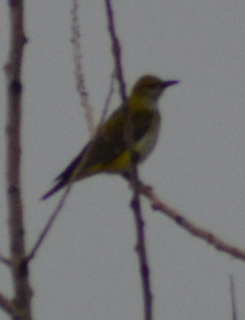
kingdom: Animalia
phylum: Chordata
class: Aves
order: Passeriformes
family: Oriolidae
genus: Oriolus
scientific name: Oriolus oriolus
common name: Eurasian golden oriole
